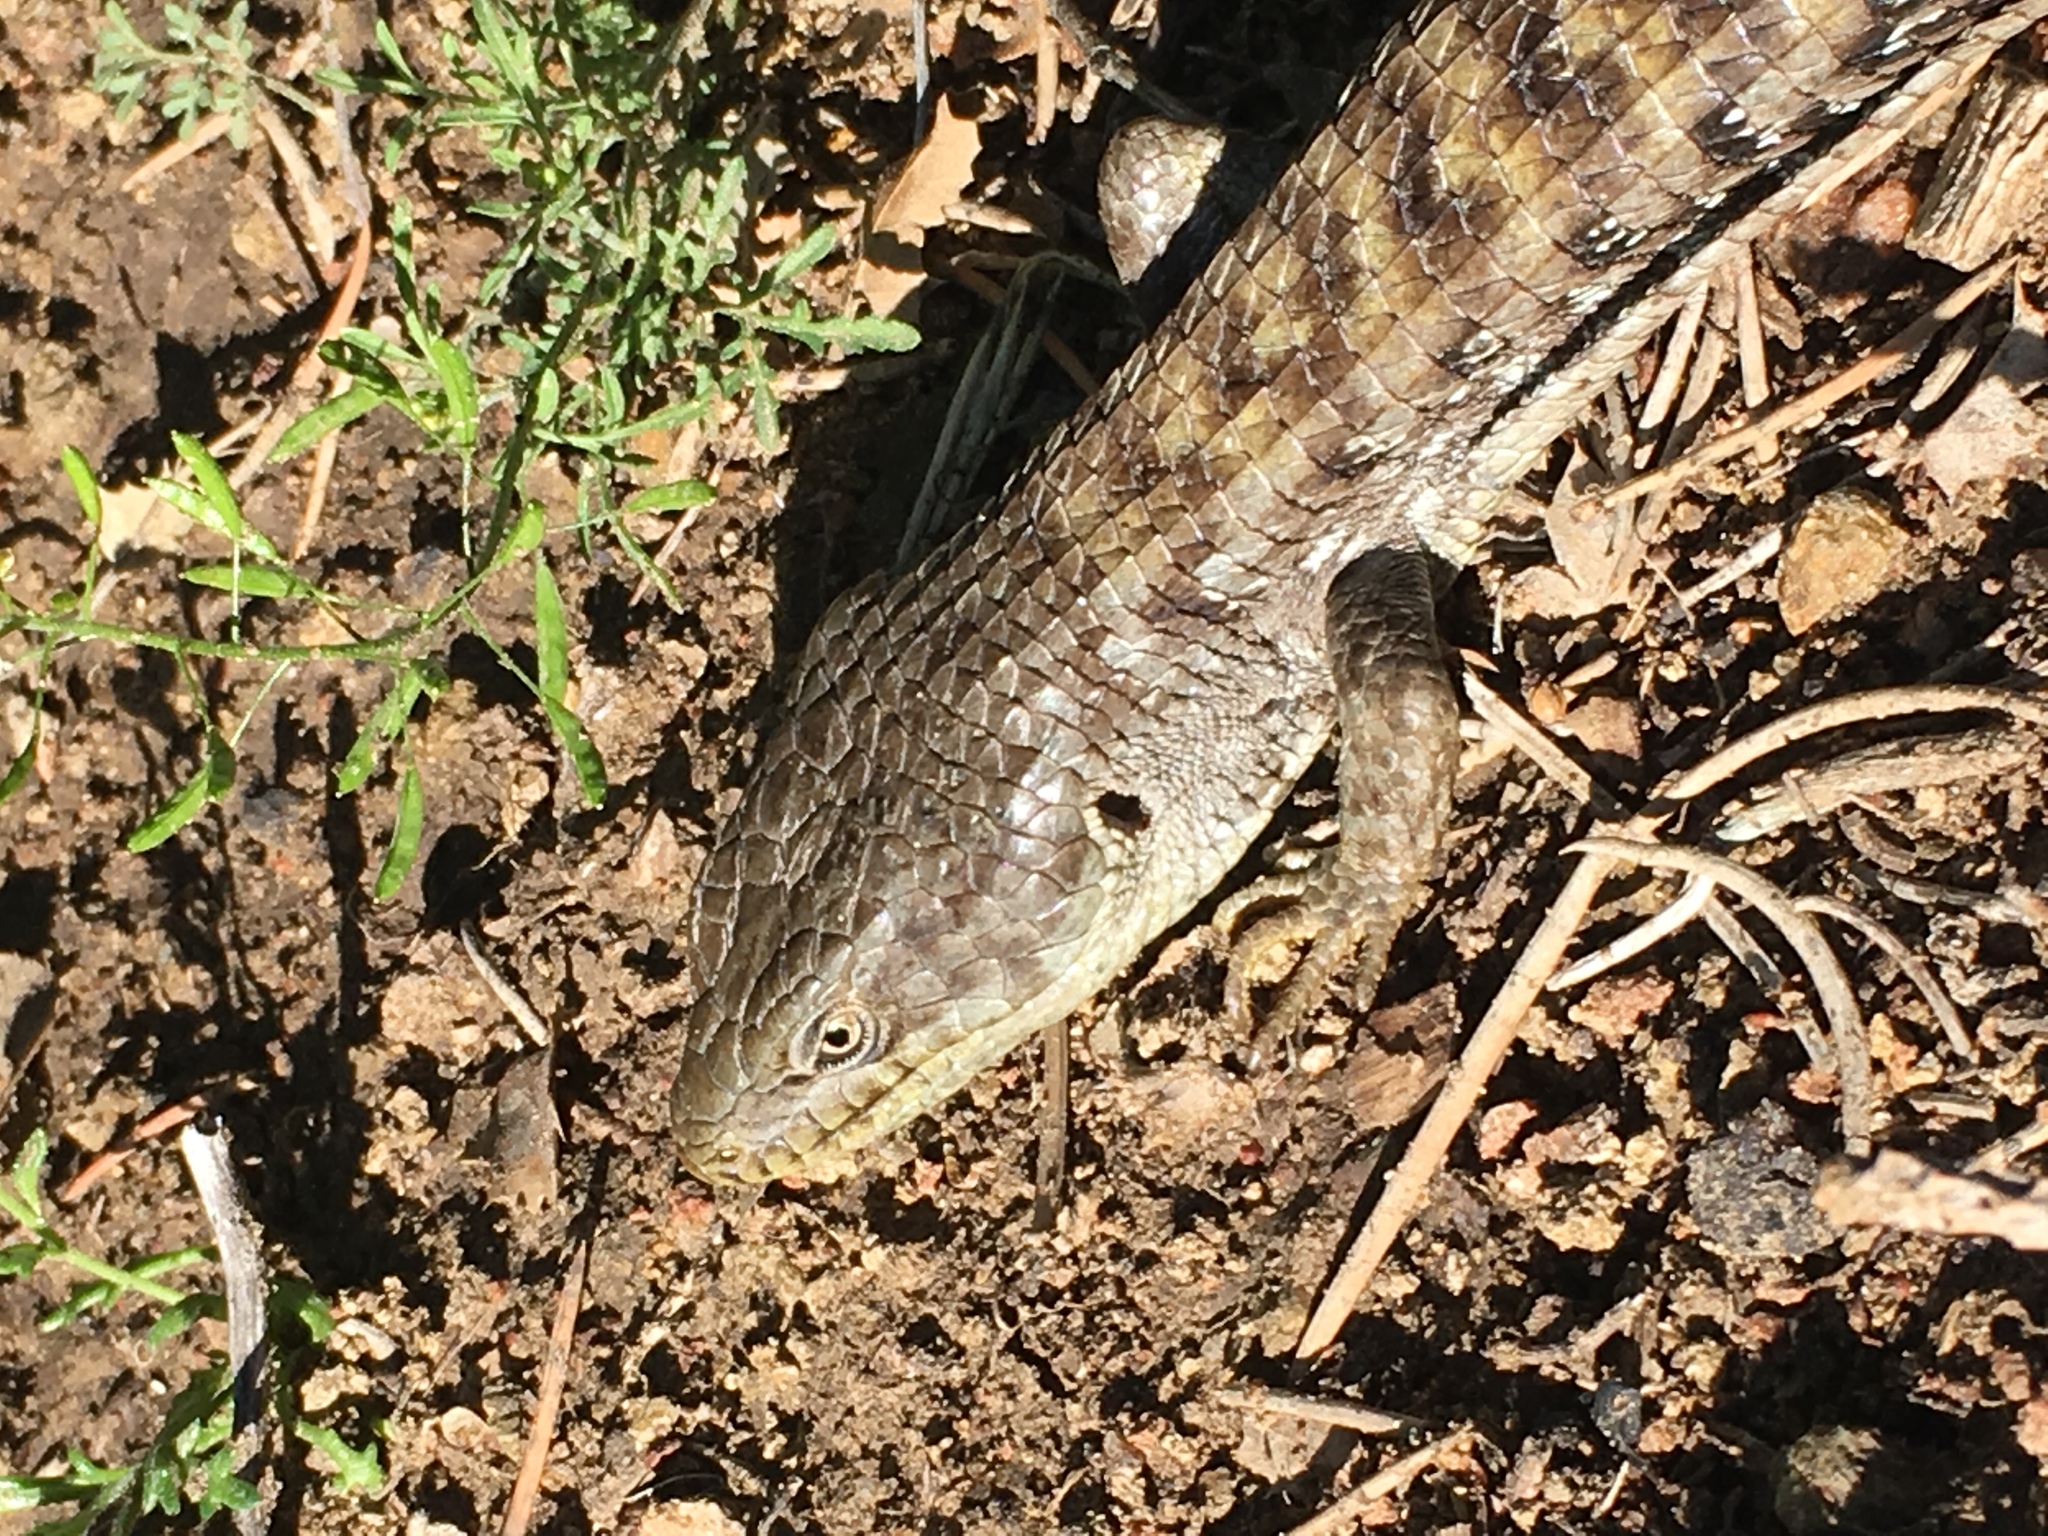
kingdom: Animalia
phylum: Chordata
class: Squamata
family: Anguidae
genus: Elgaria
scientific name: Elgaria multicarinata
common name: Southern alligator lizard
